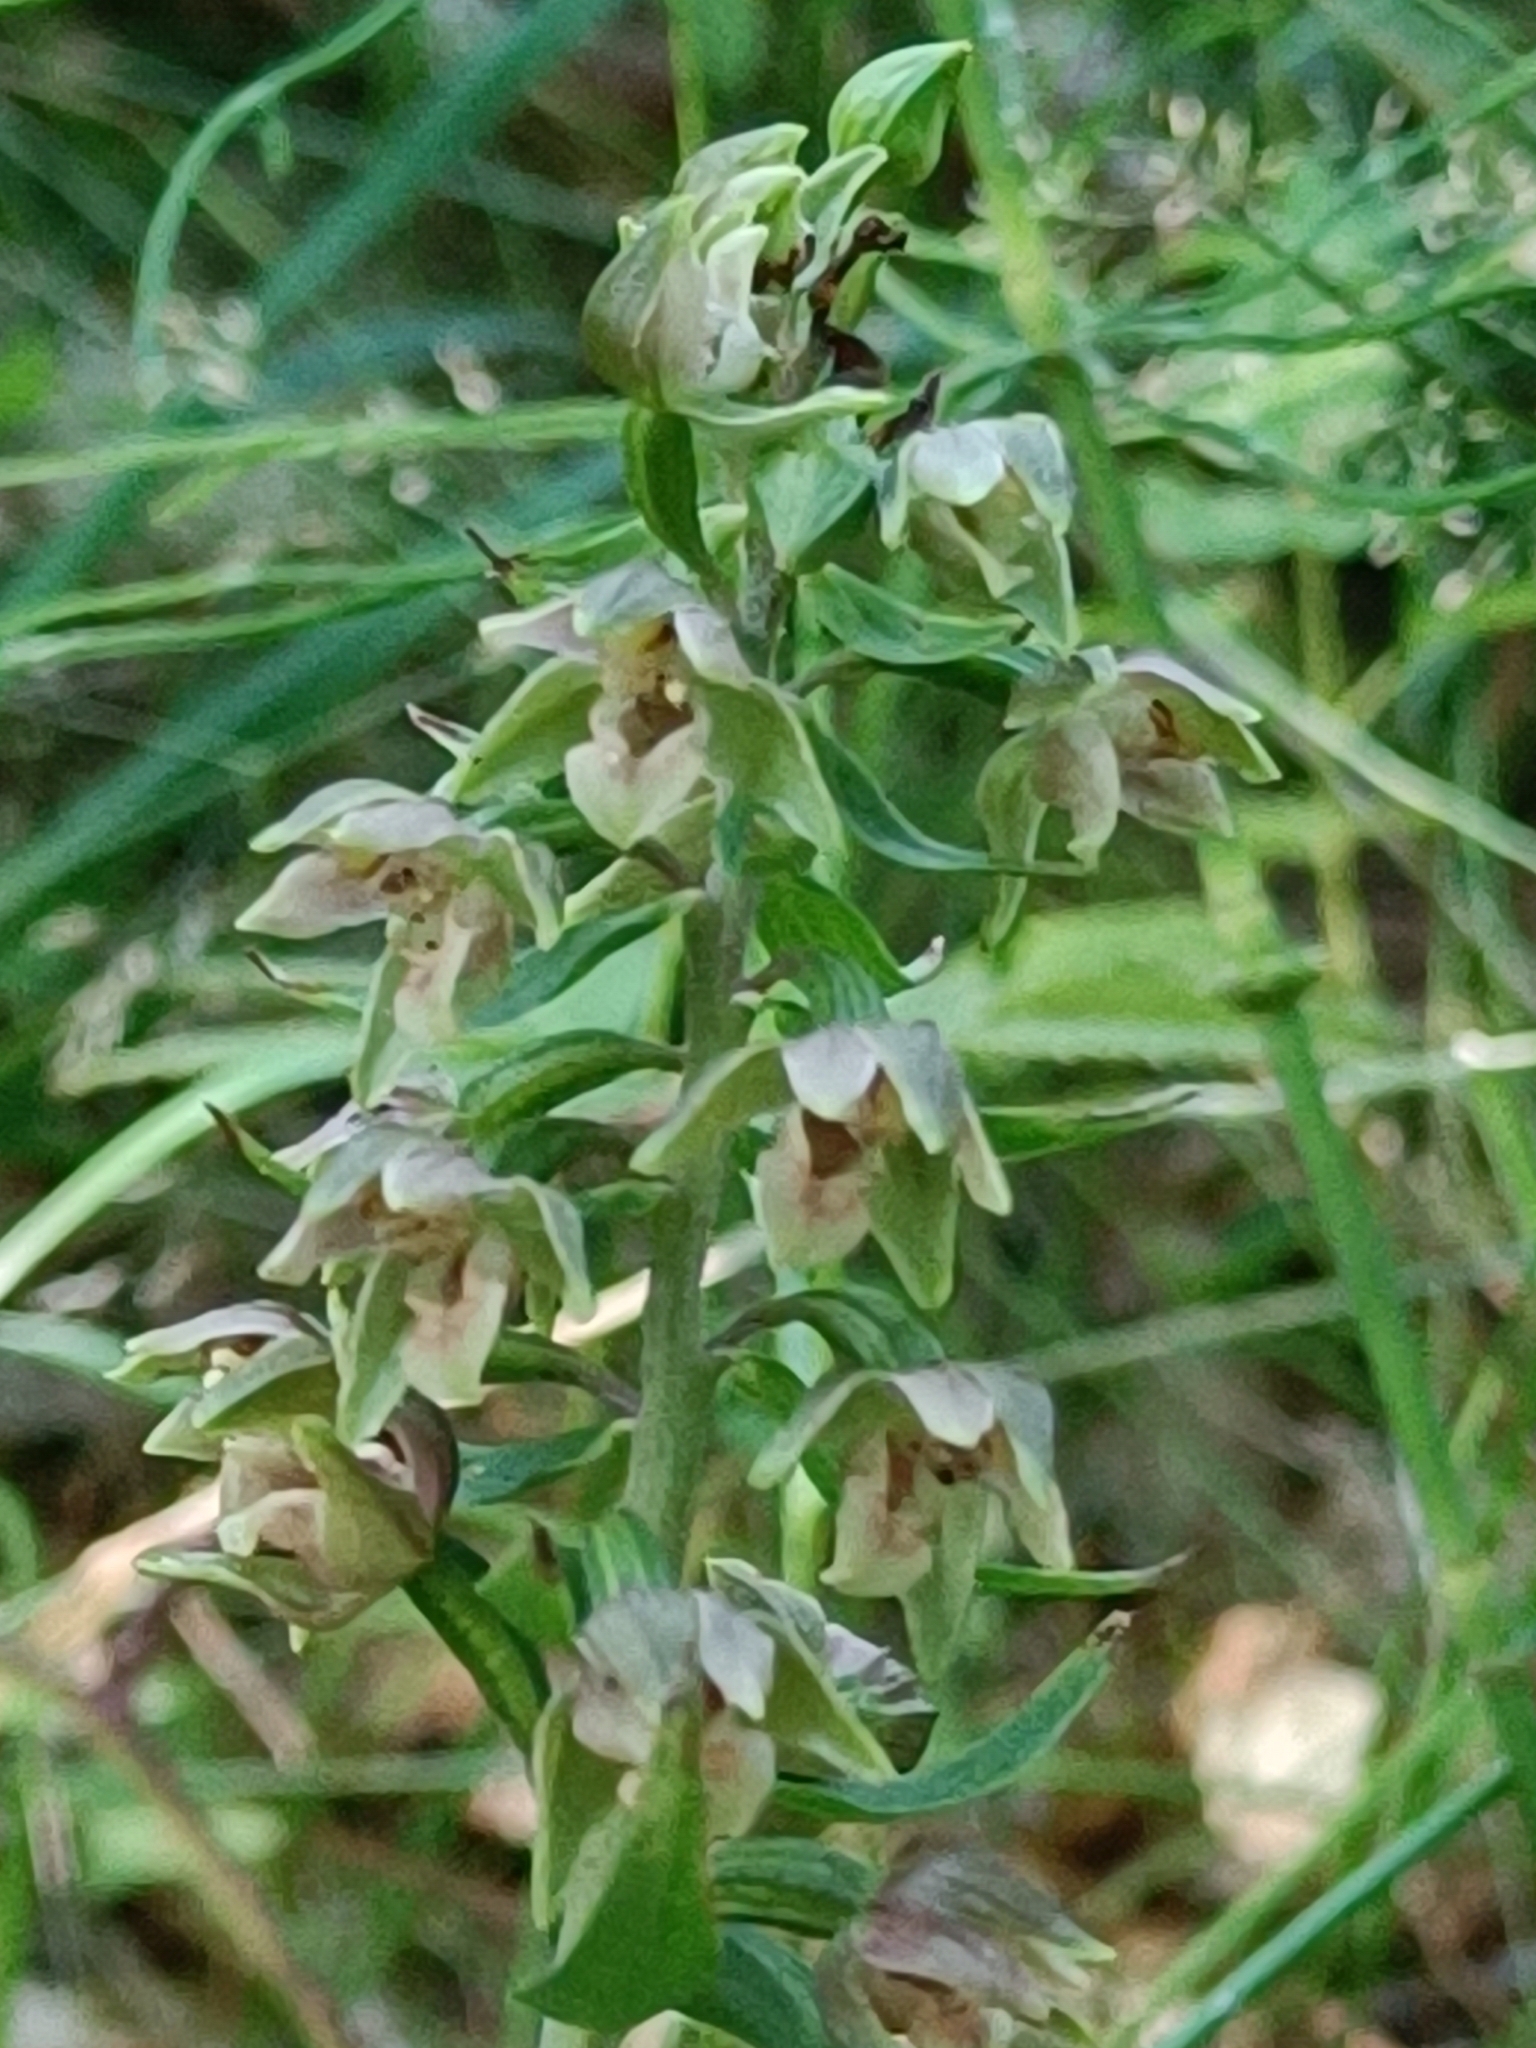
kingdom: Plantae
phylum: Tracheophyta
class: Liliopsida
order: Asparagales
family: Orchidaceae
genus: Epipactis
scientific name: Epipactis helleborine
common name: Broad-leaved helleborine
